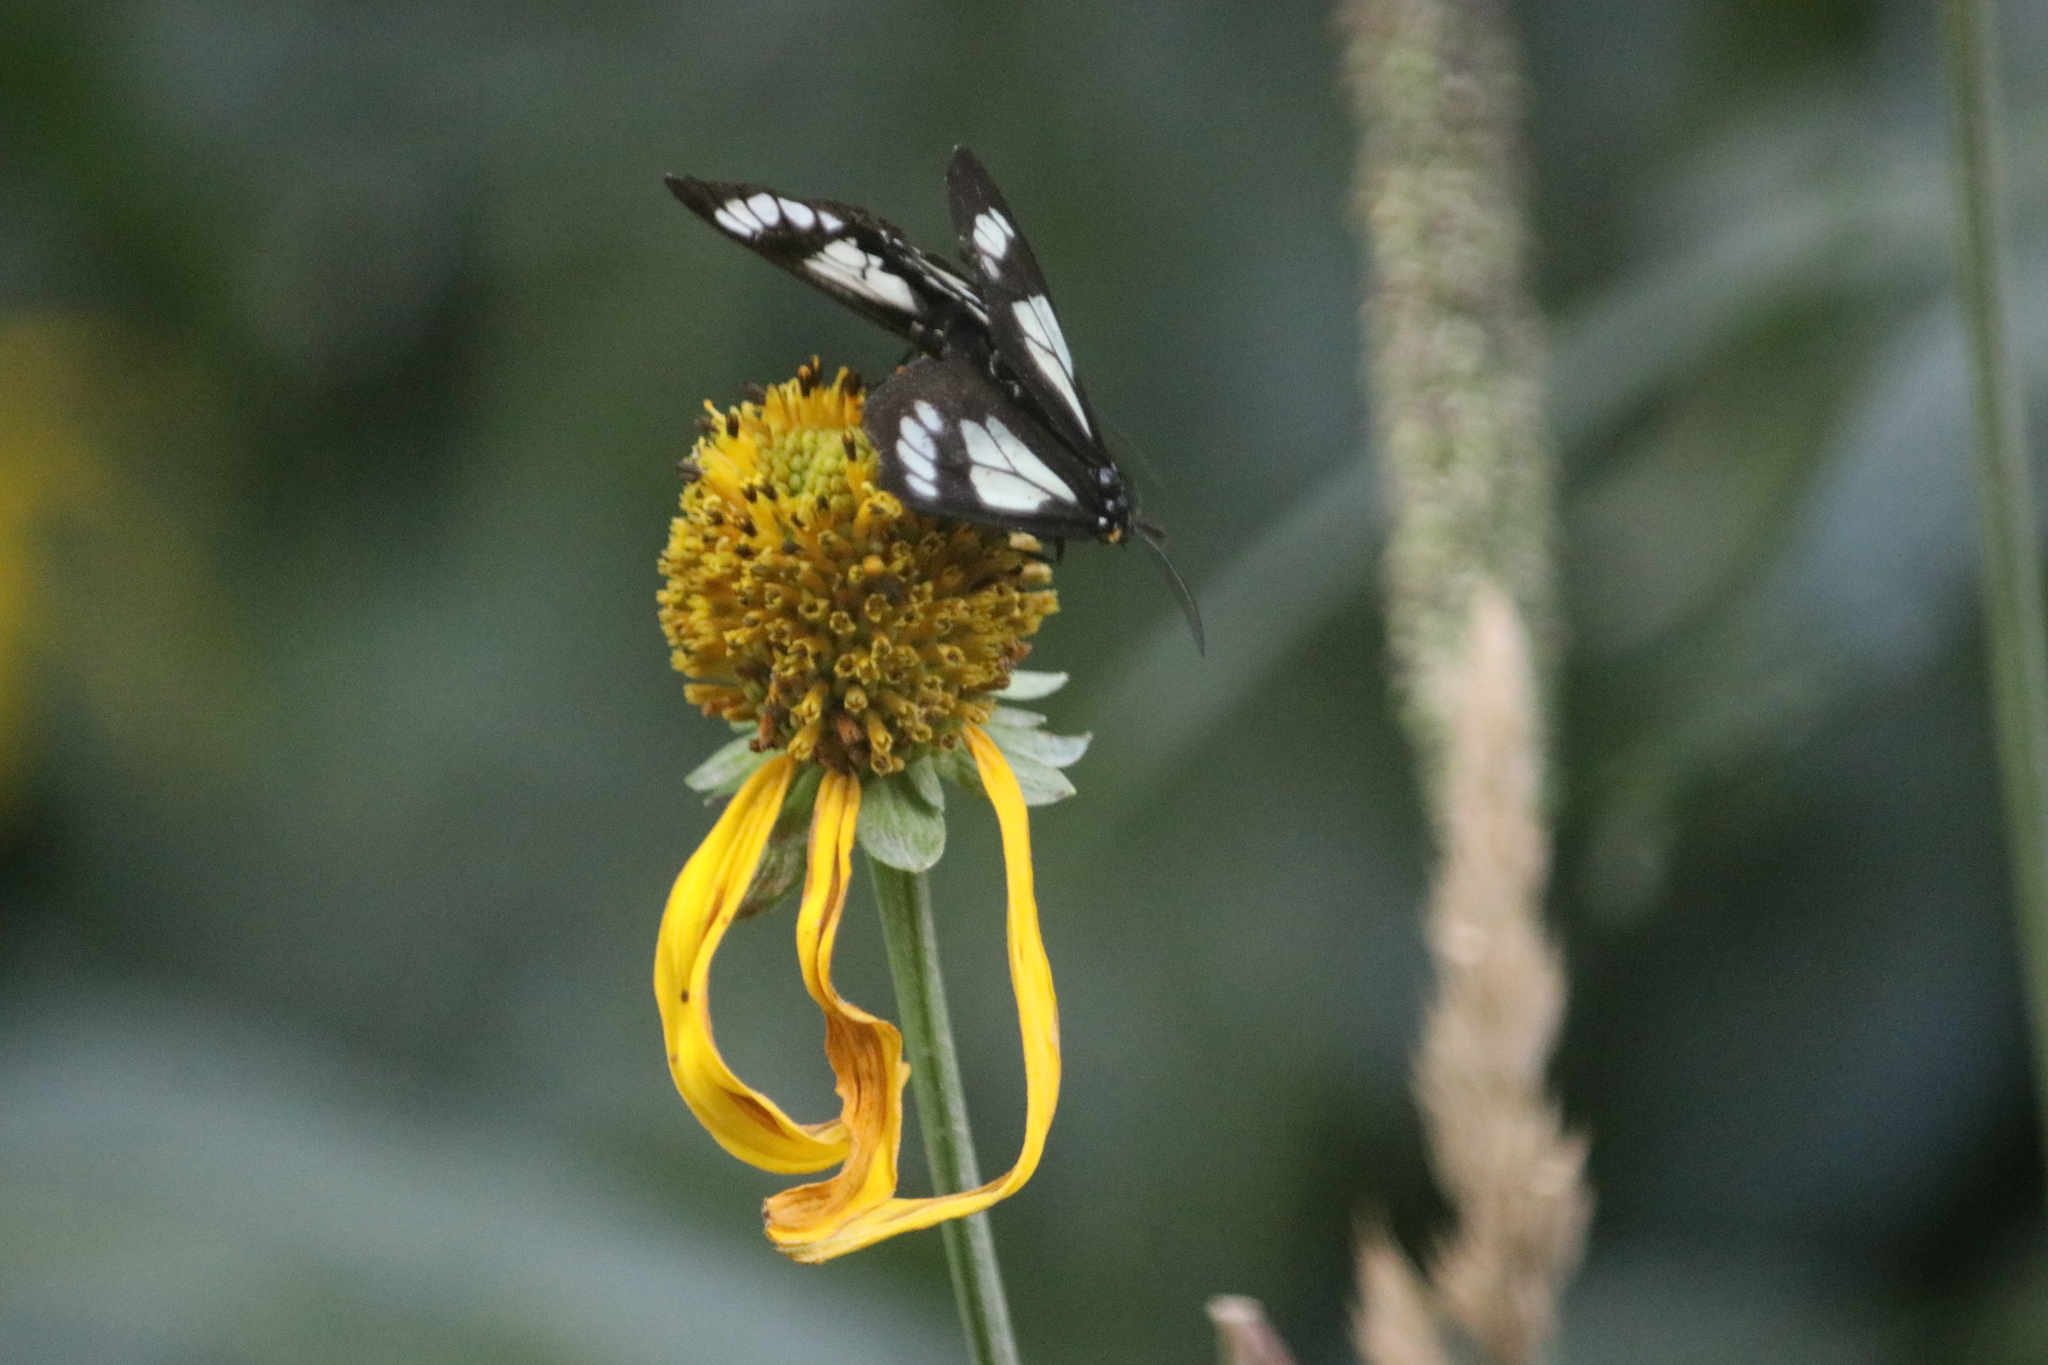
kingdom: Animalia
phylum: Arthropoda
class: Insecta
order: Lepidoptera
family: Erebidae
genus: Gnophaela
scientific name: Gnophaela vermiculata
